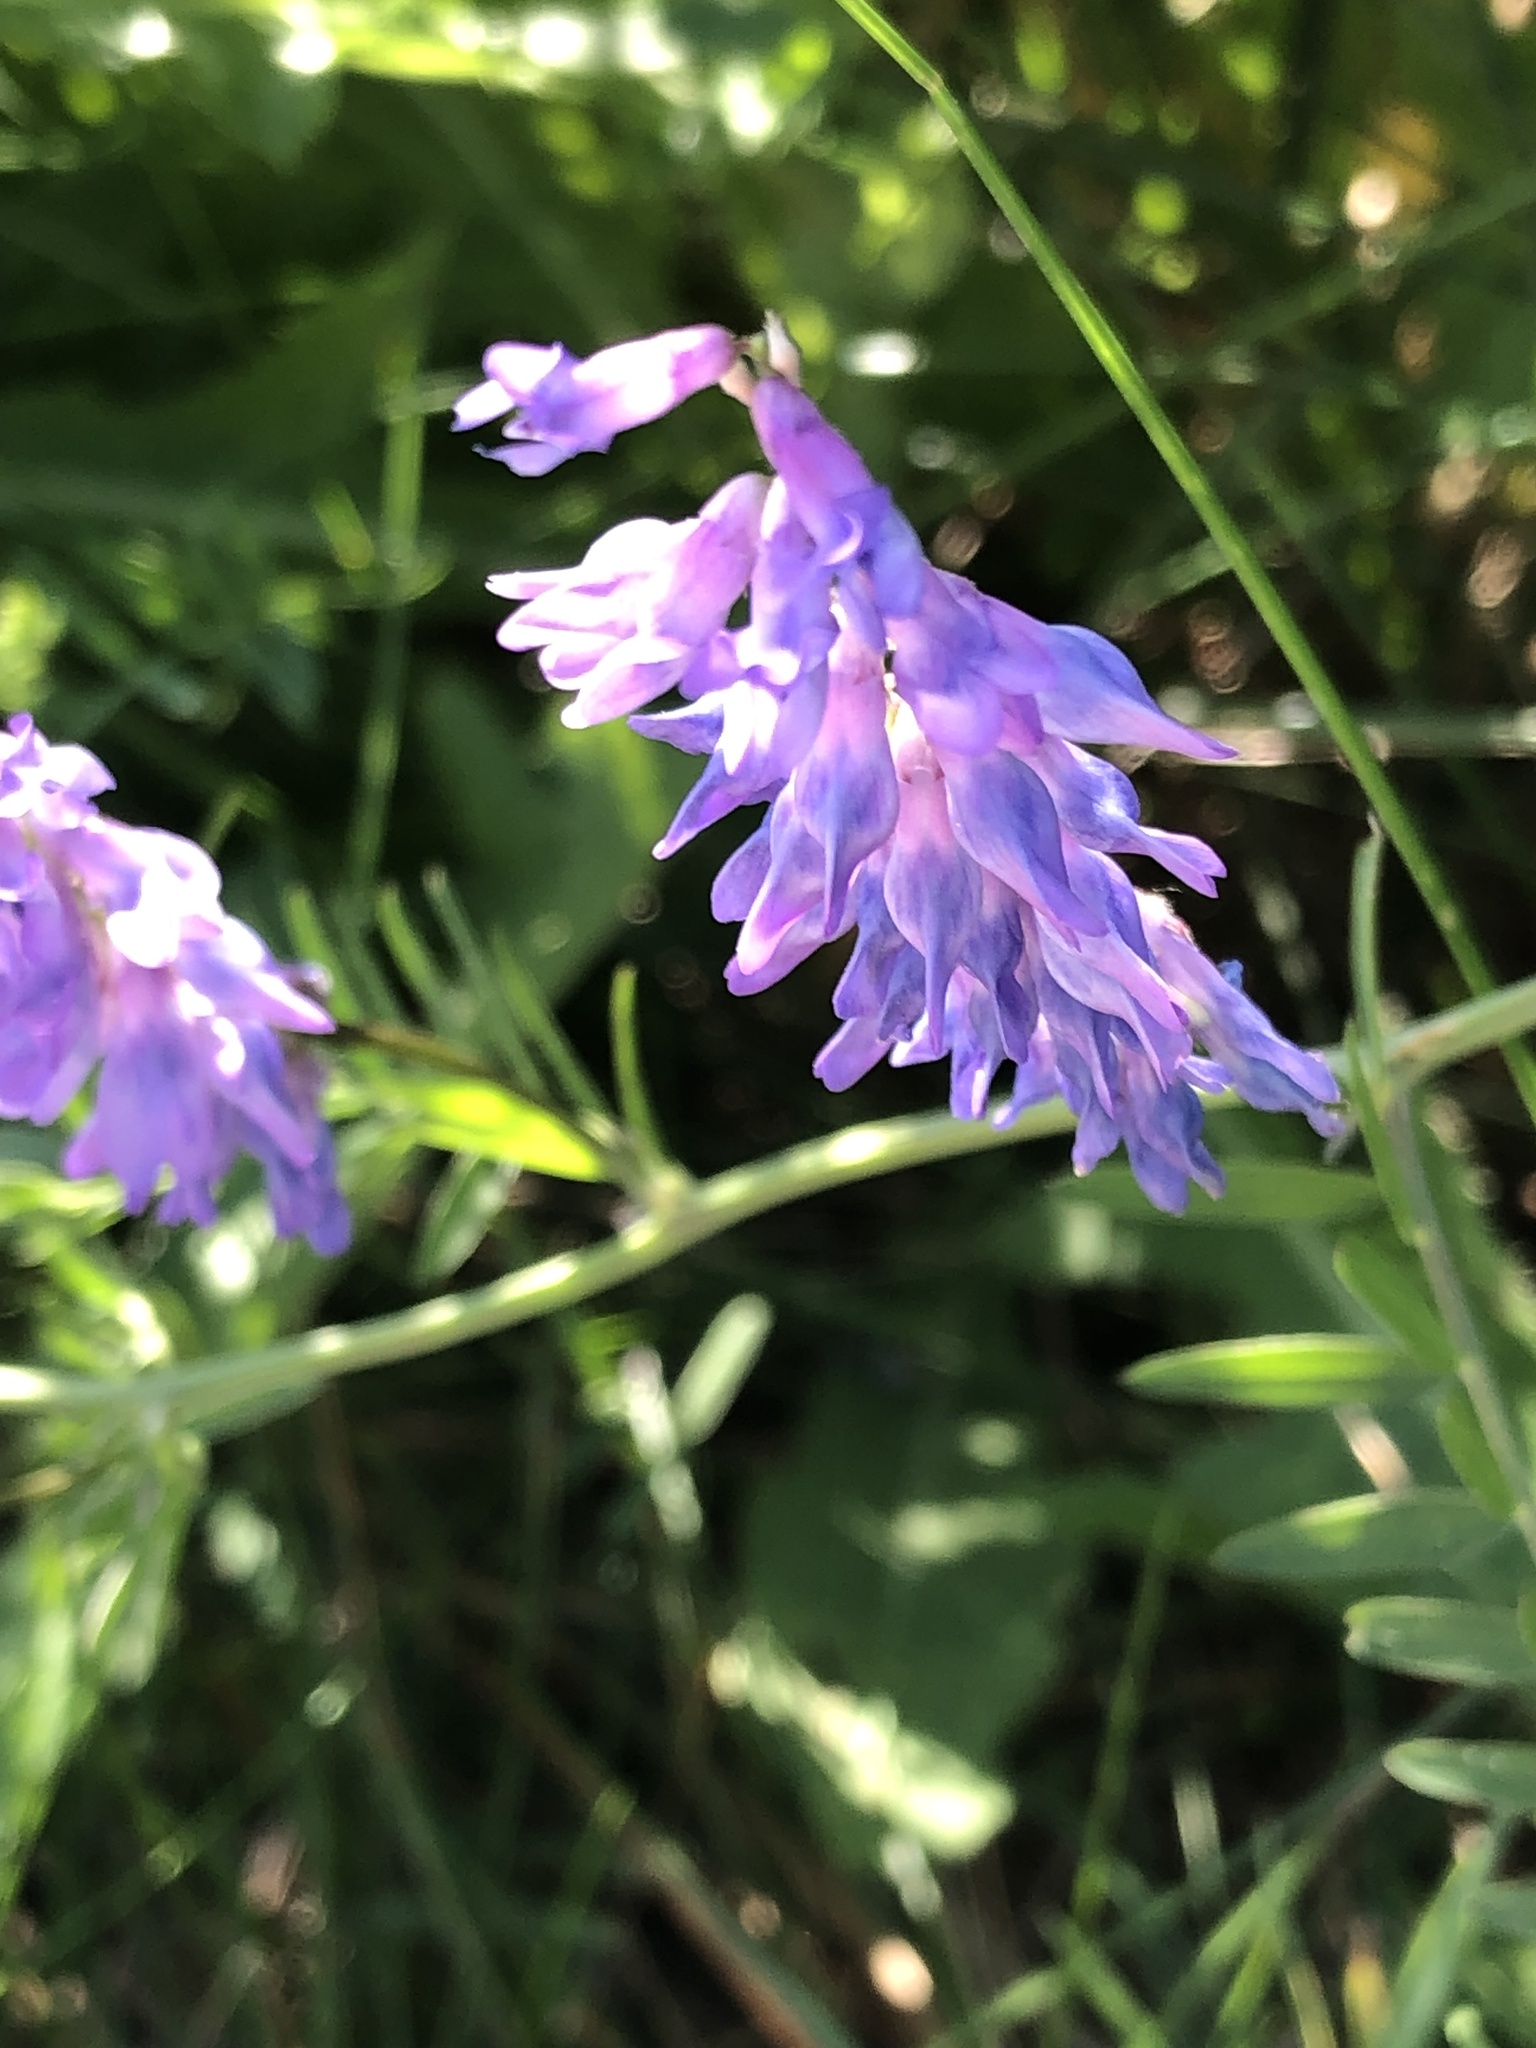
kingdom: Plantae
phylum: Tracheophyta
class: Magnoliopsida
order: Fabales
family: Fabaceae
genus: Vicia
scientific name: Vicia cracca
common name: Bird vetch
